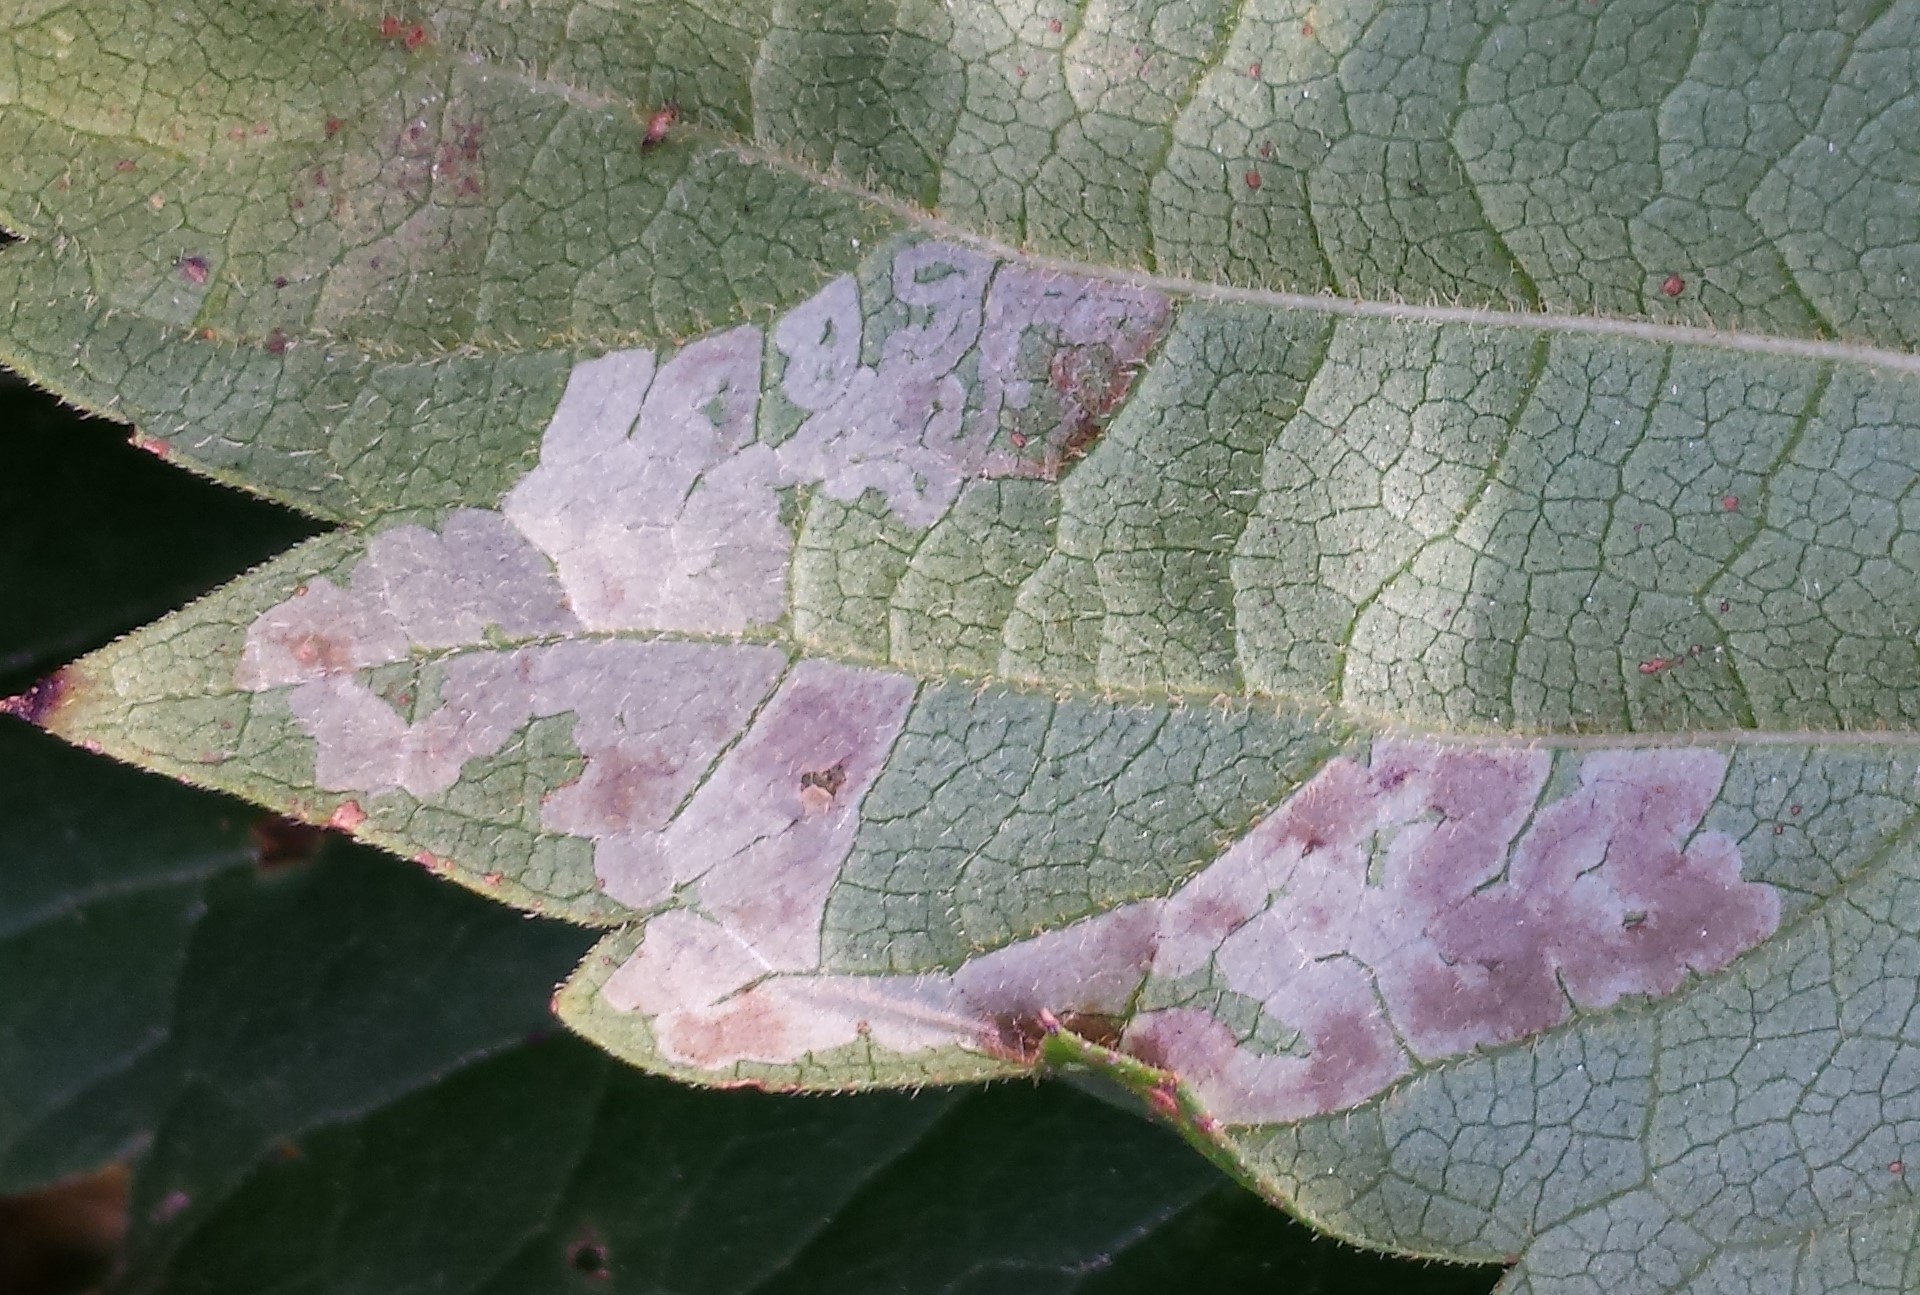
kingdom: Animalia
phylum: Arthropoda
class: Insecta
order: Lepidoptera
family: Gracillariidae
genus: Phyllocnistis
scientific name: Phyllocnistis ampelopsiella
